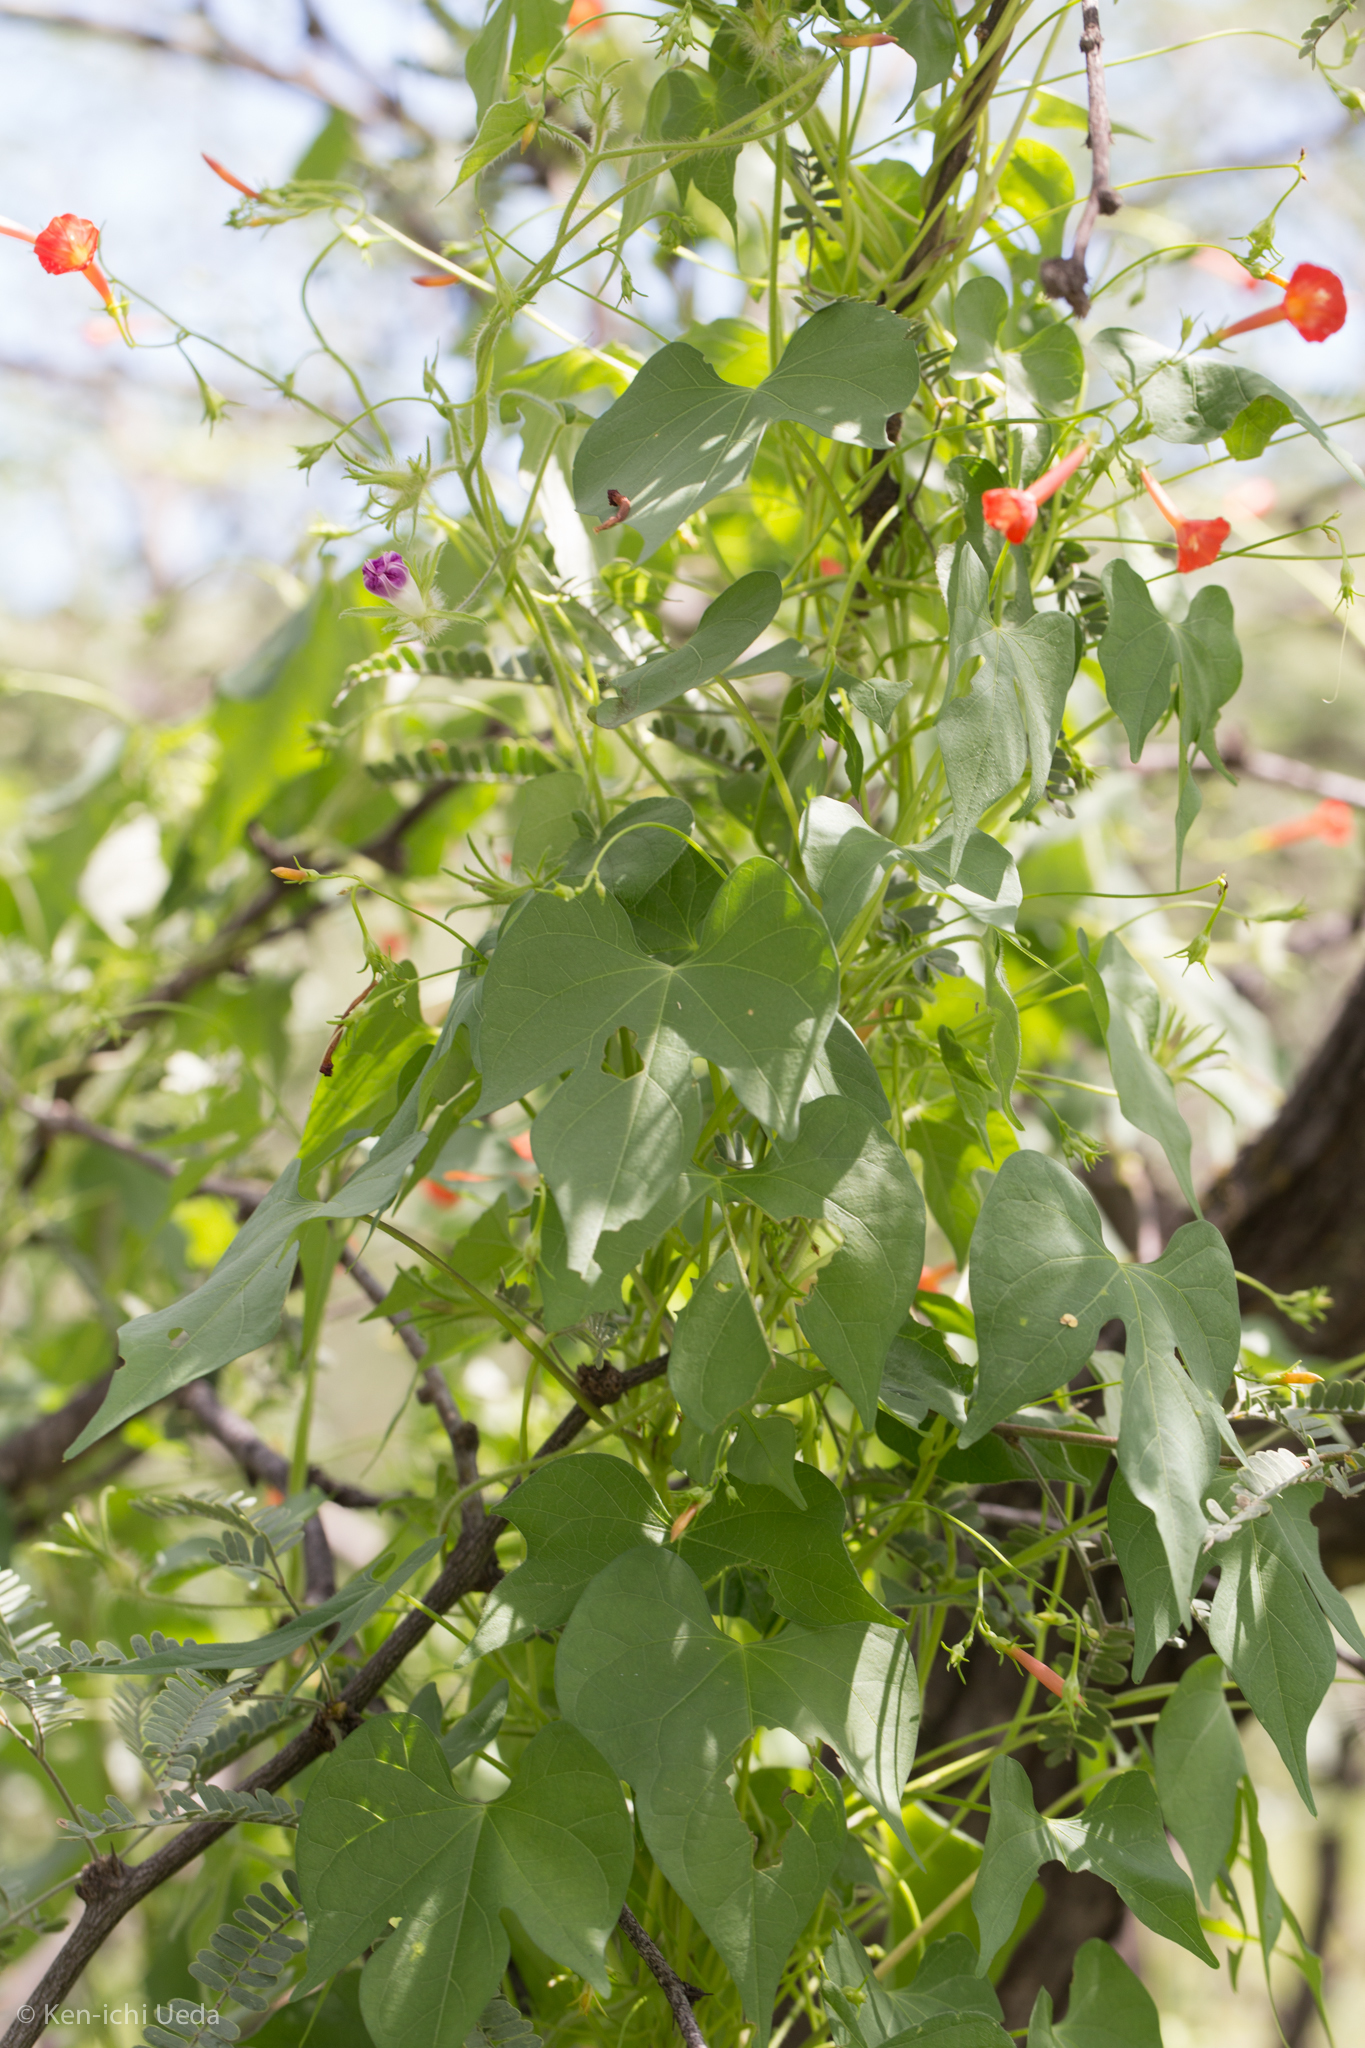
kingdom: Plantae
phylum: Tracheophyta
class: Magnoliopsida
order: Solanales
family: Convolvulaceae
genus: Ipomoea
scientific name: Ipomoea cristulata
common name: Trans-pecos morning-glory
